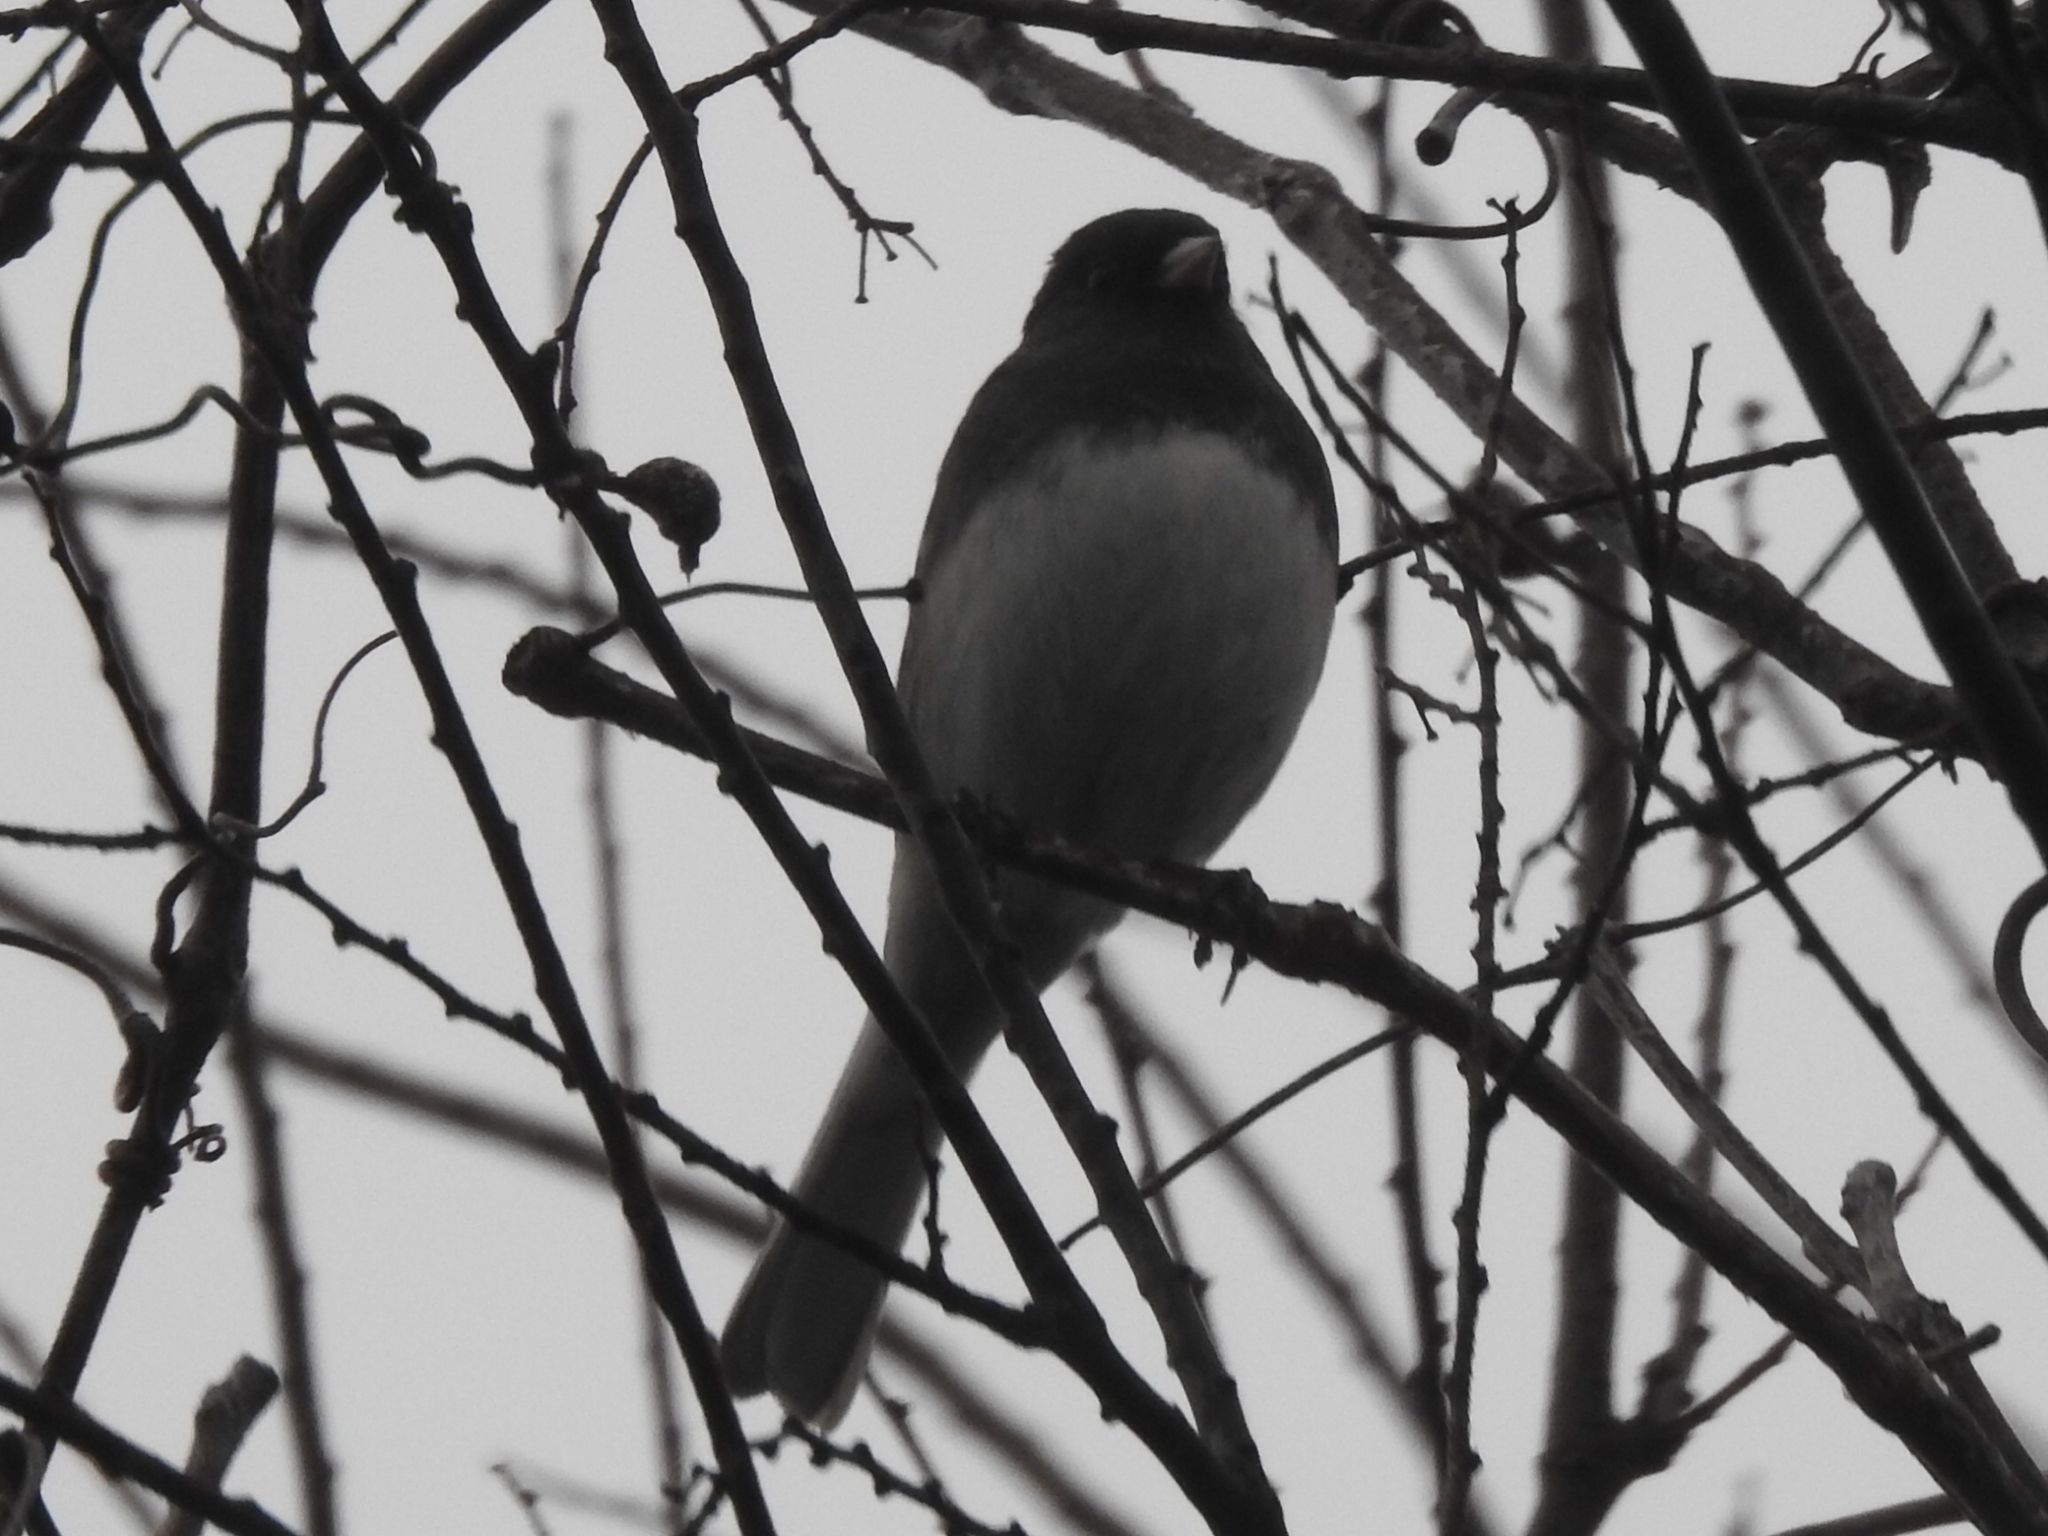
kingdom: Animalia
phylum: Chordata
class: Aves
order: Passeriformes
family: Passerellidae
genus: Junco
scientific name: Junco hyemalis
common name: Dark-eyed junco
